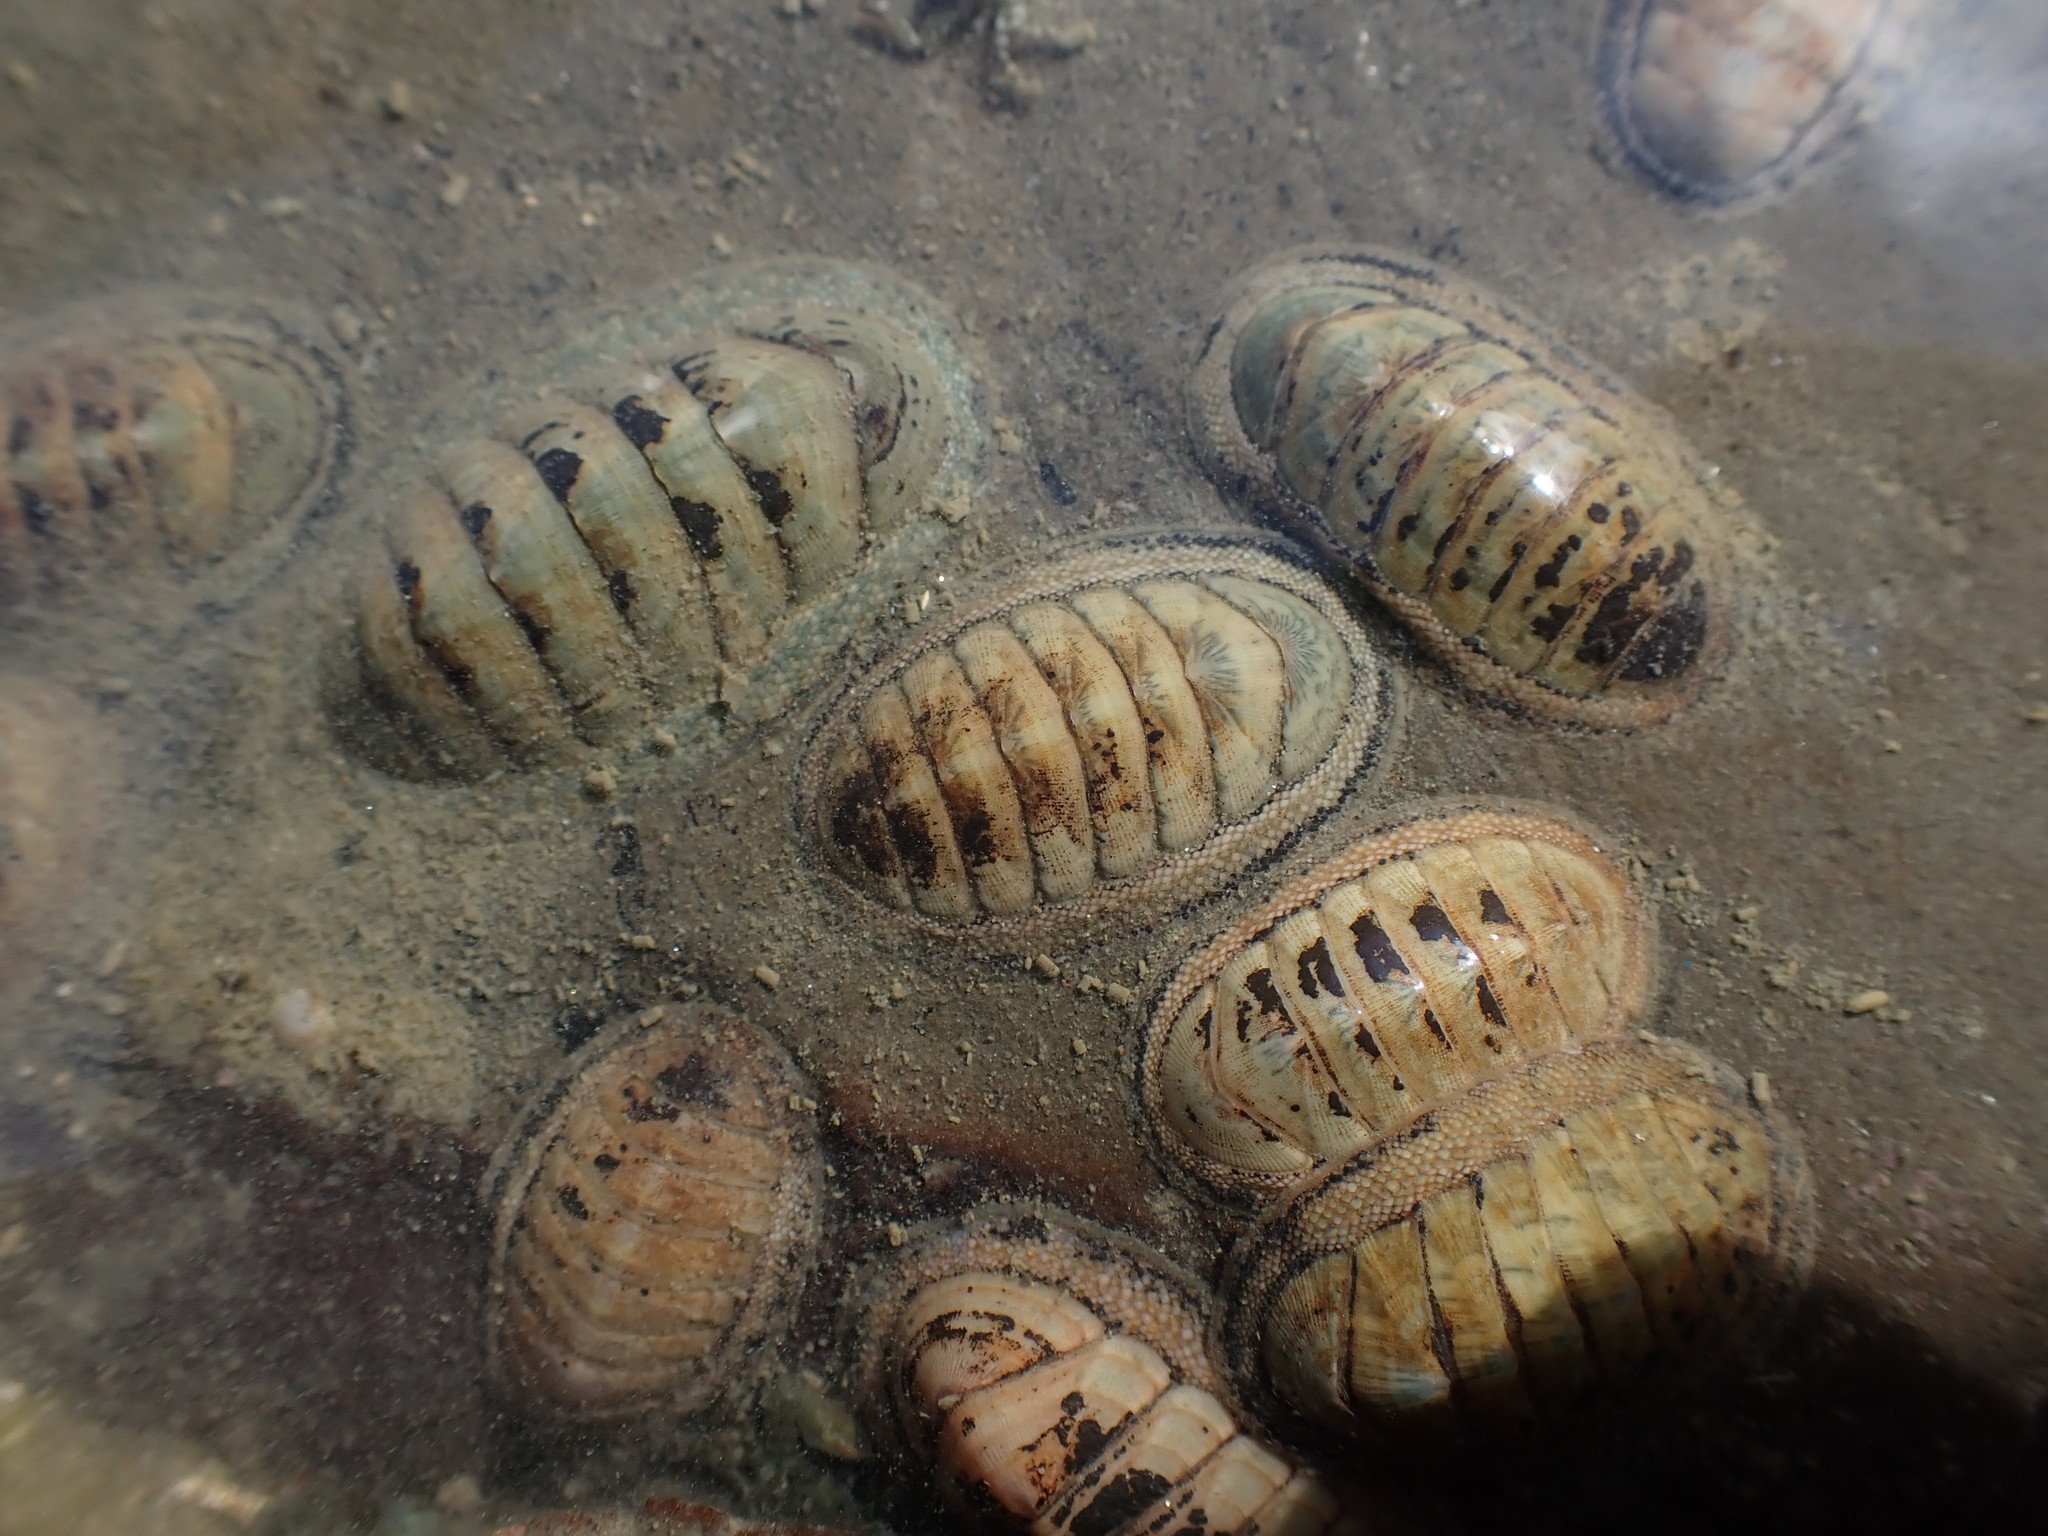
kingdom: Animalia
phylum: Mollusca
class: Polyplacophora
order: Chitonida
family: Chitonidae
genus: Chiton
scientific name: Chiton glaucus
